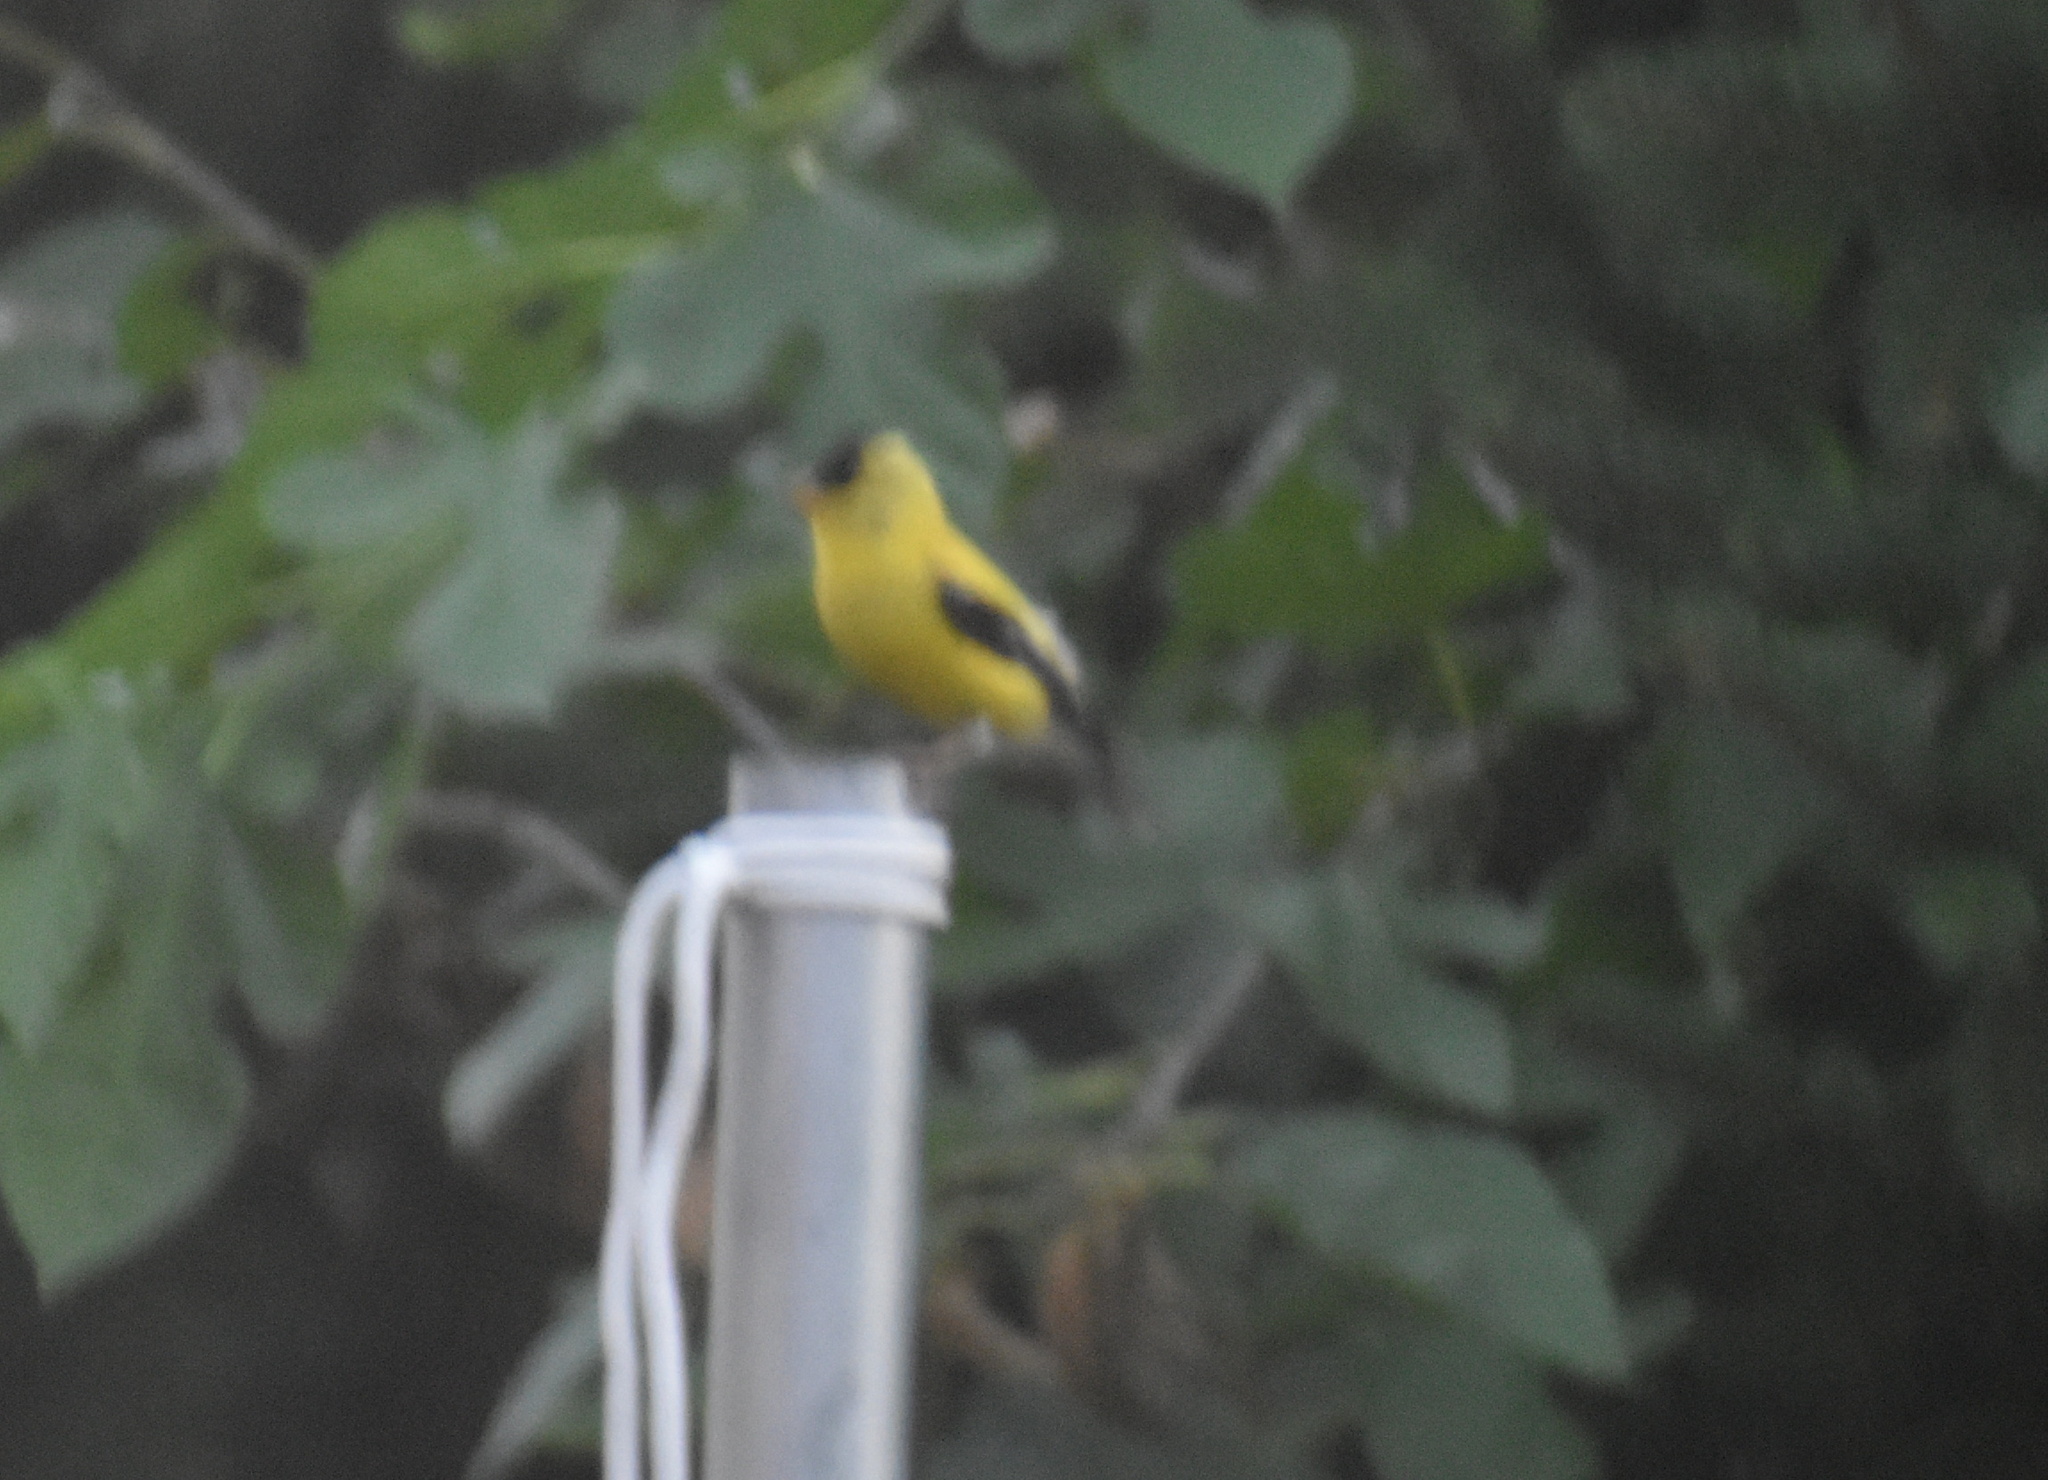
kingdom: Animalia
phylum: Chordata
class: Aves
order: Passeriformes
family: Fringillidae
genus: Spinus
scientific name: Spinus tristis
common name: American goldfinch
